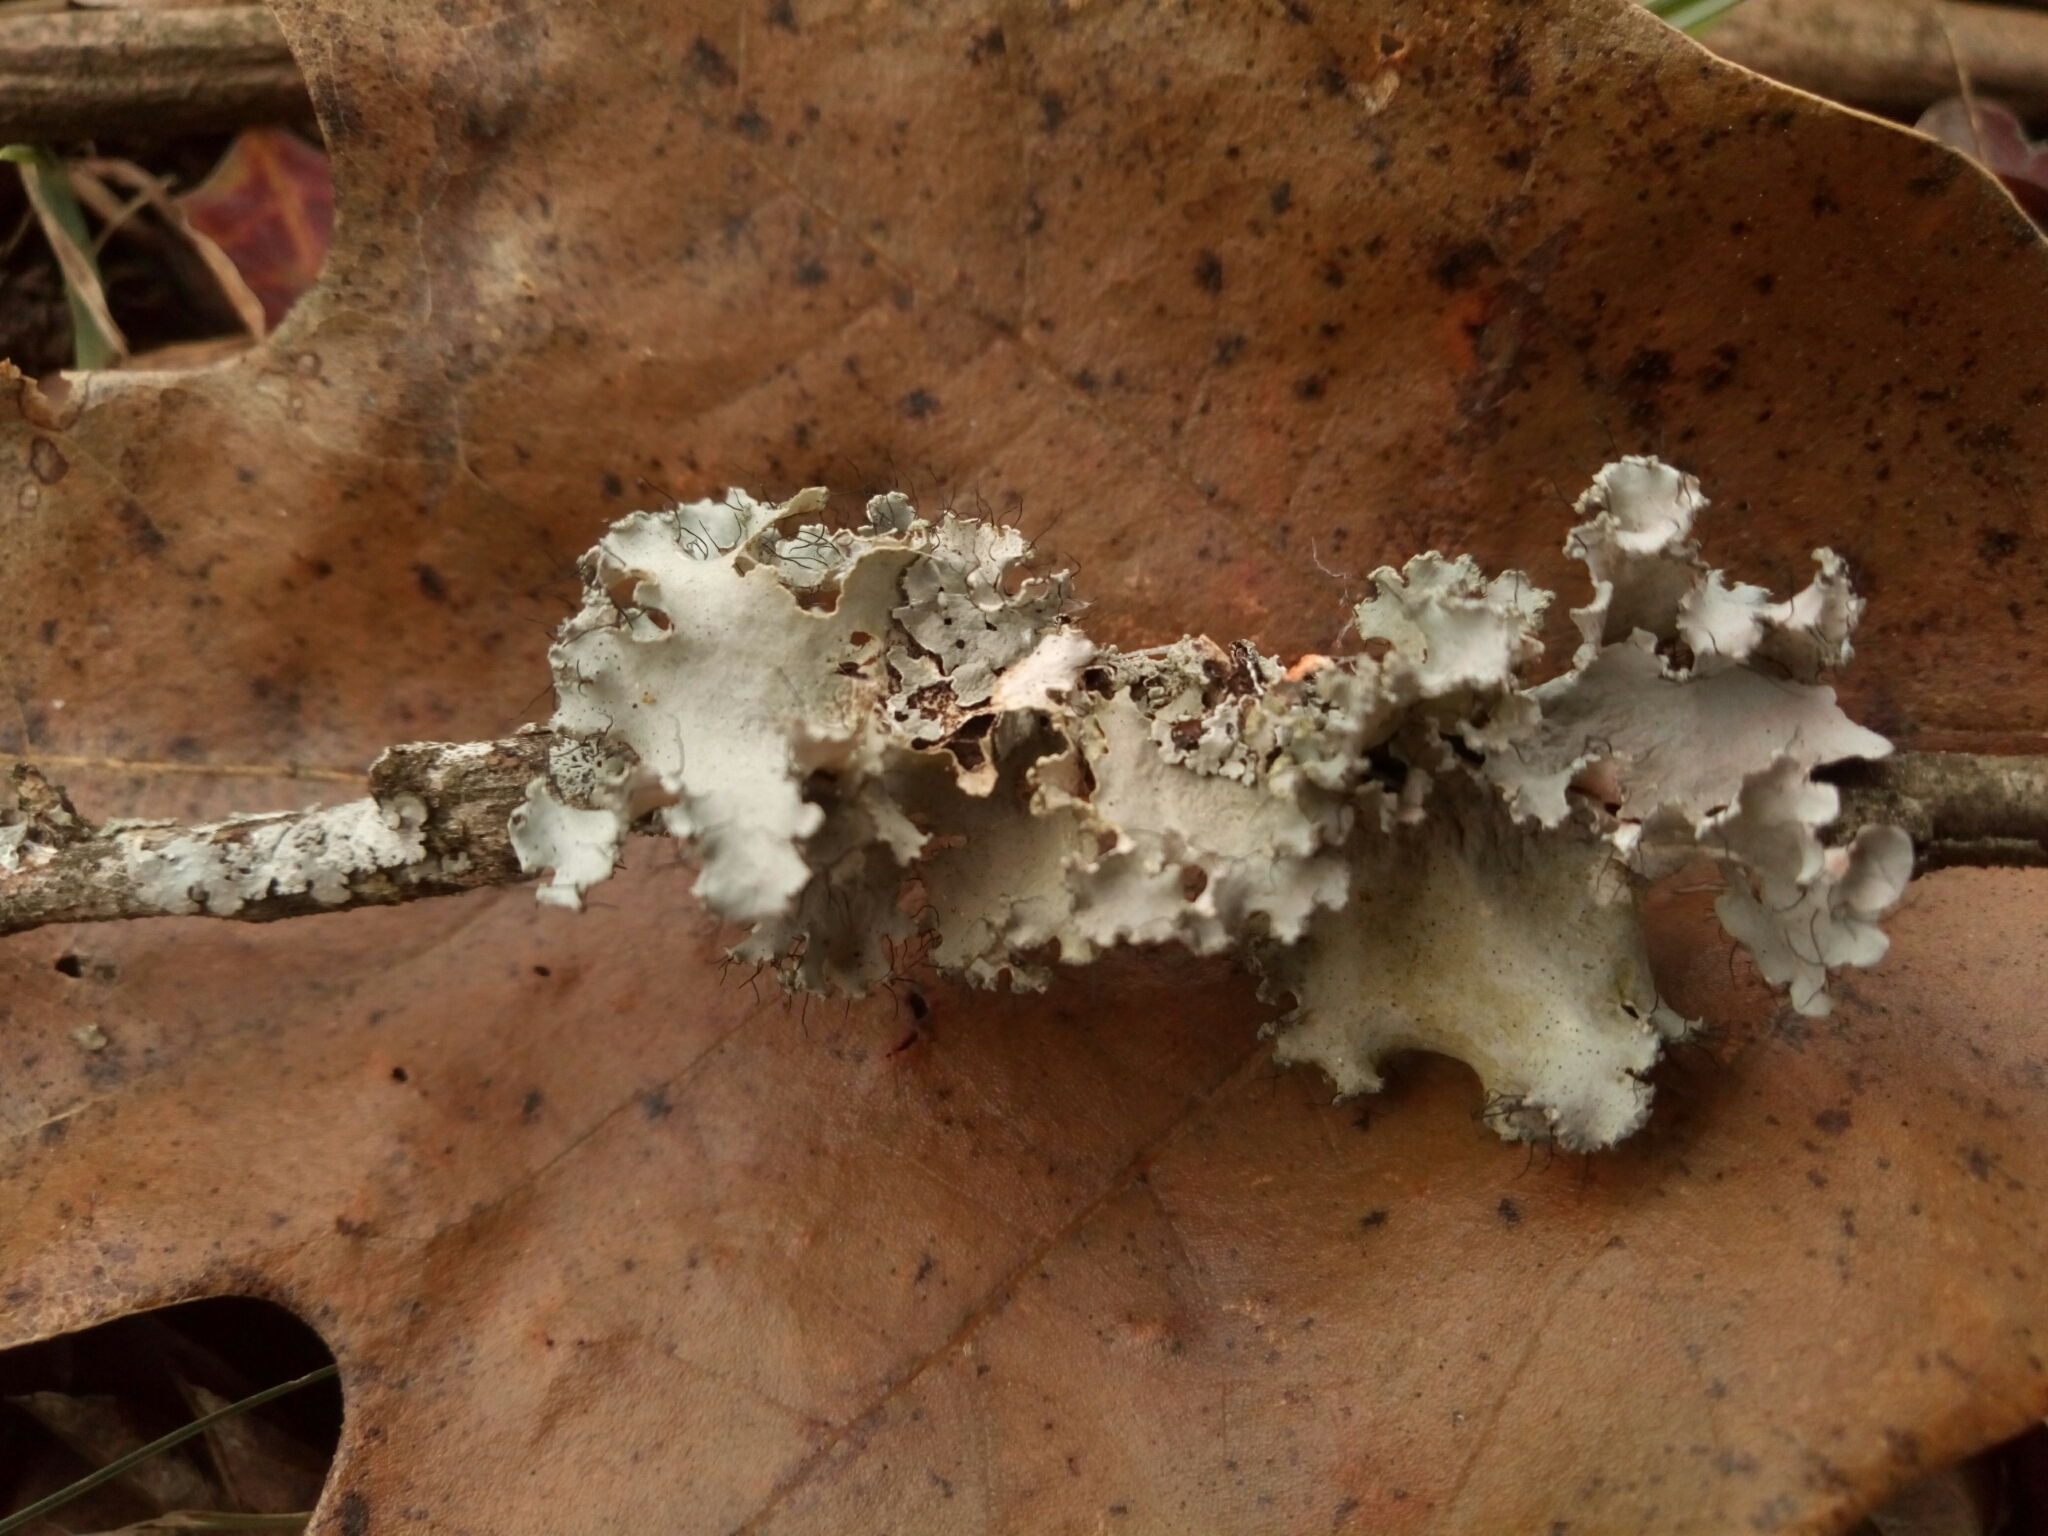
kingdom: Fungi
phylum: Ascomycota
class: Lecanoromycetes
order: Lecanorales
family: Parmeliaceae
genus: Parmotrema
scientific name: Parmotrema hypotropum
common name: Powdered ruffle lichen
